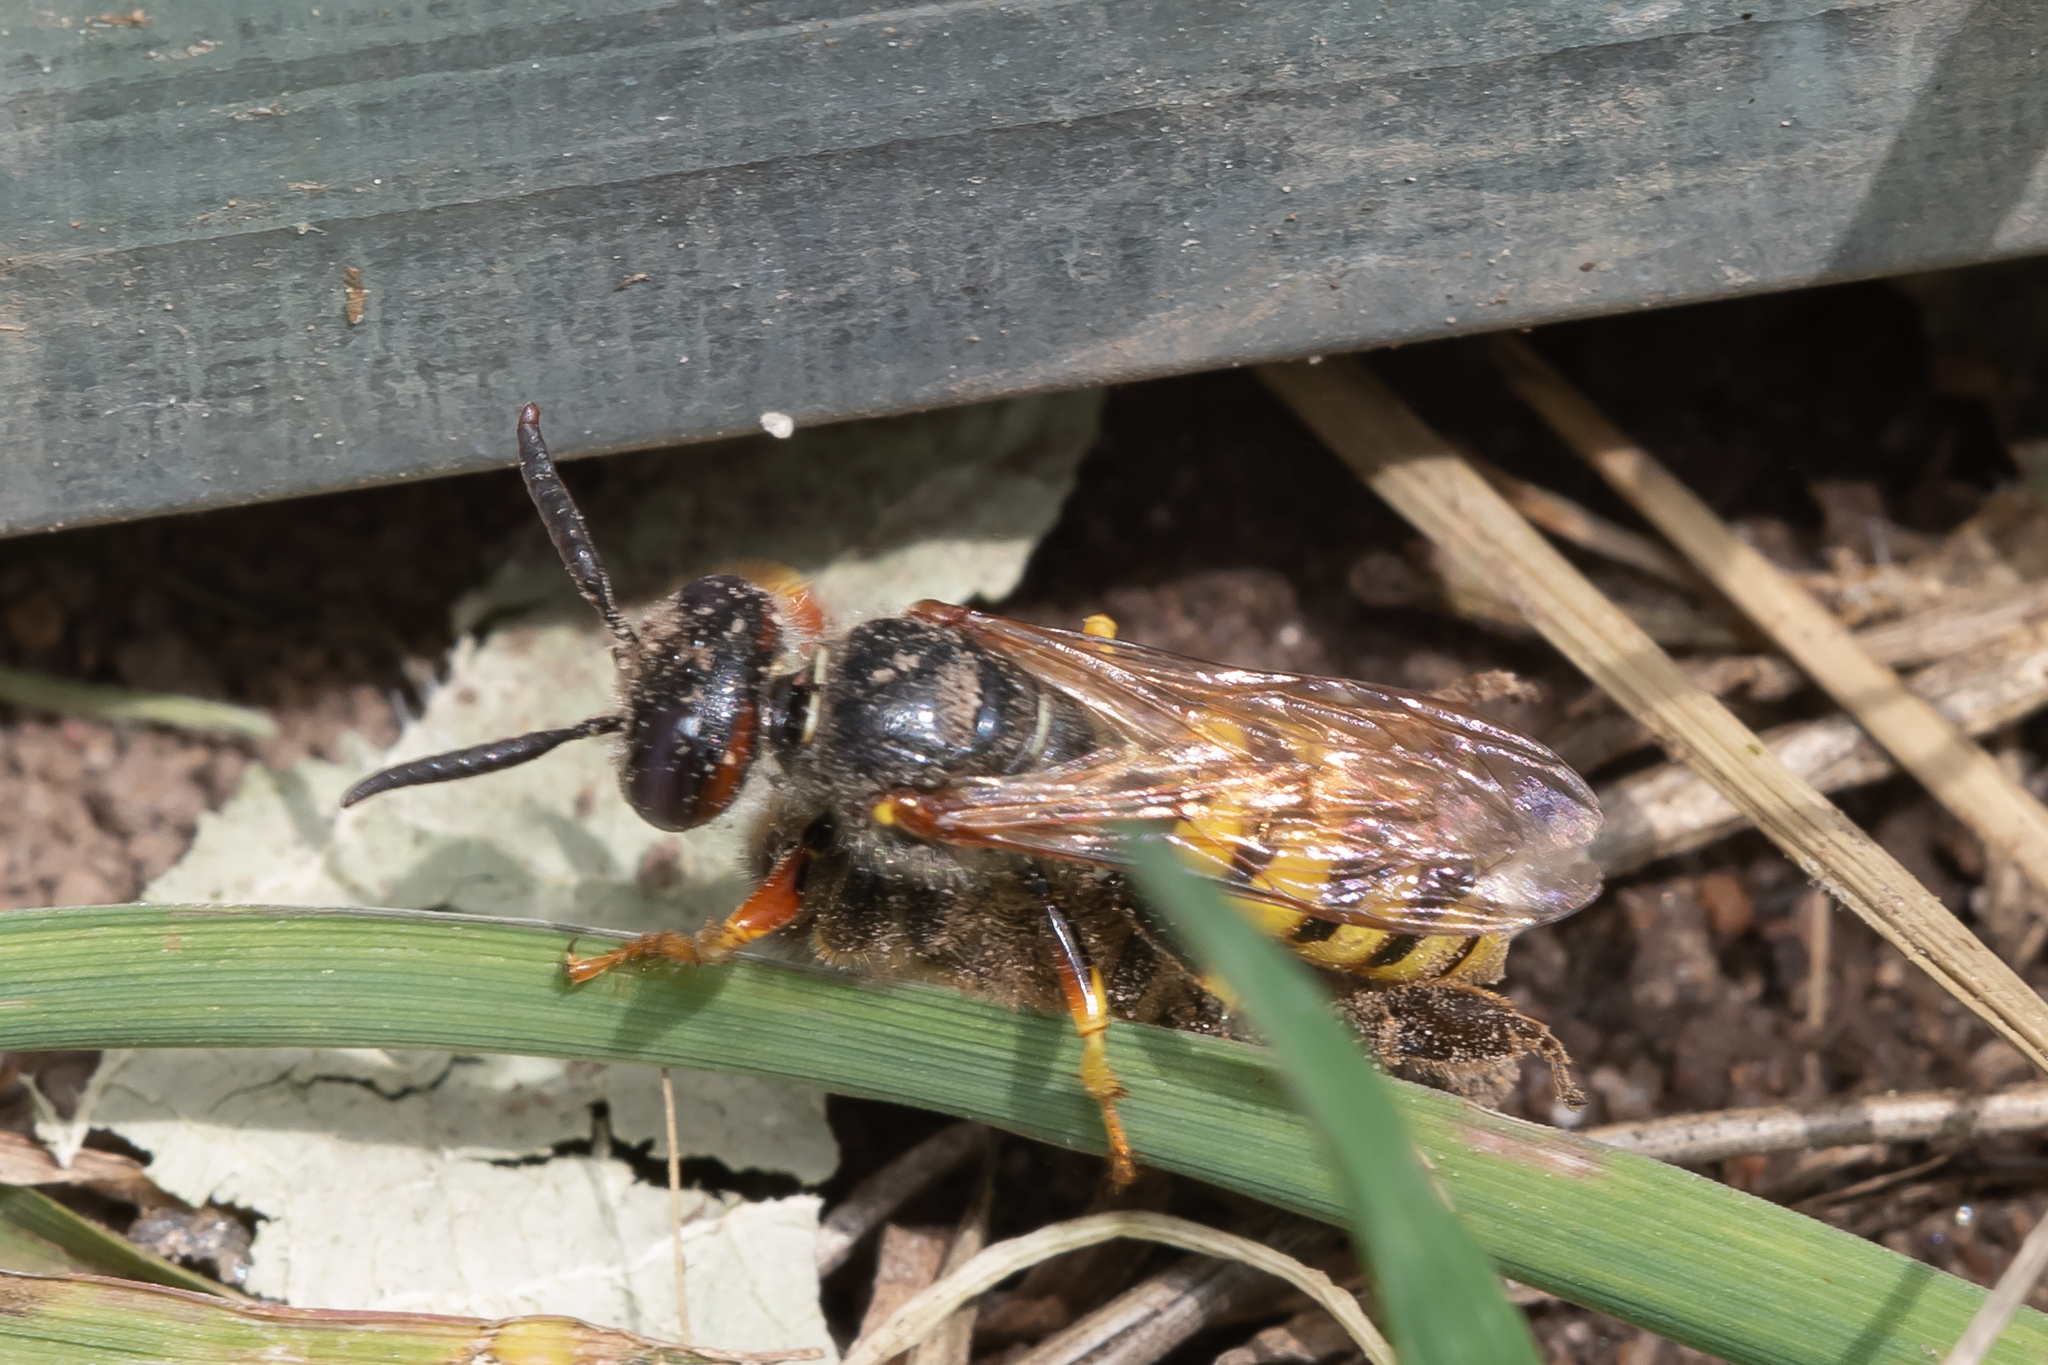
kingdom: Animalia
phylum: Arthropoda
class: Insecta
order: Hymenoptera
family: Crabronidae
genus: Philanthus
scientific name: Philanthus triangulum
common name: Bee wolf
